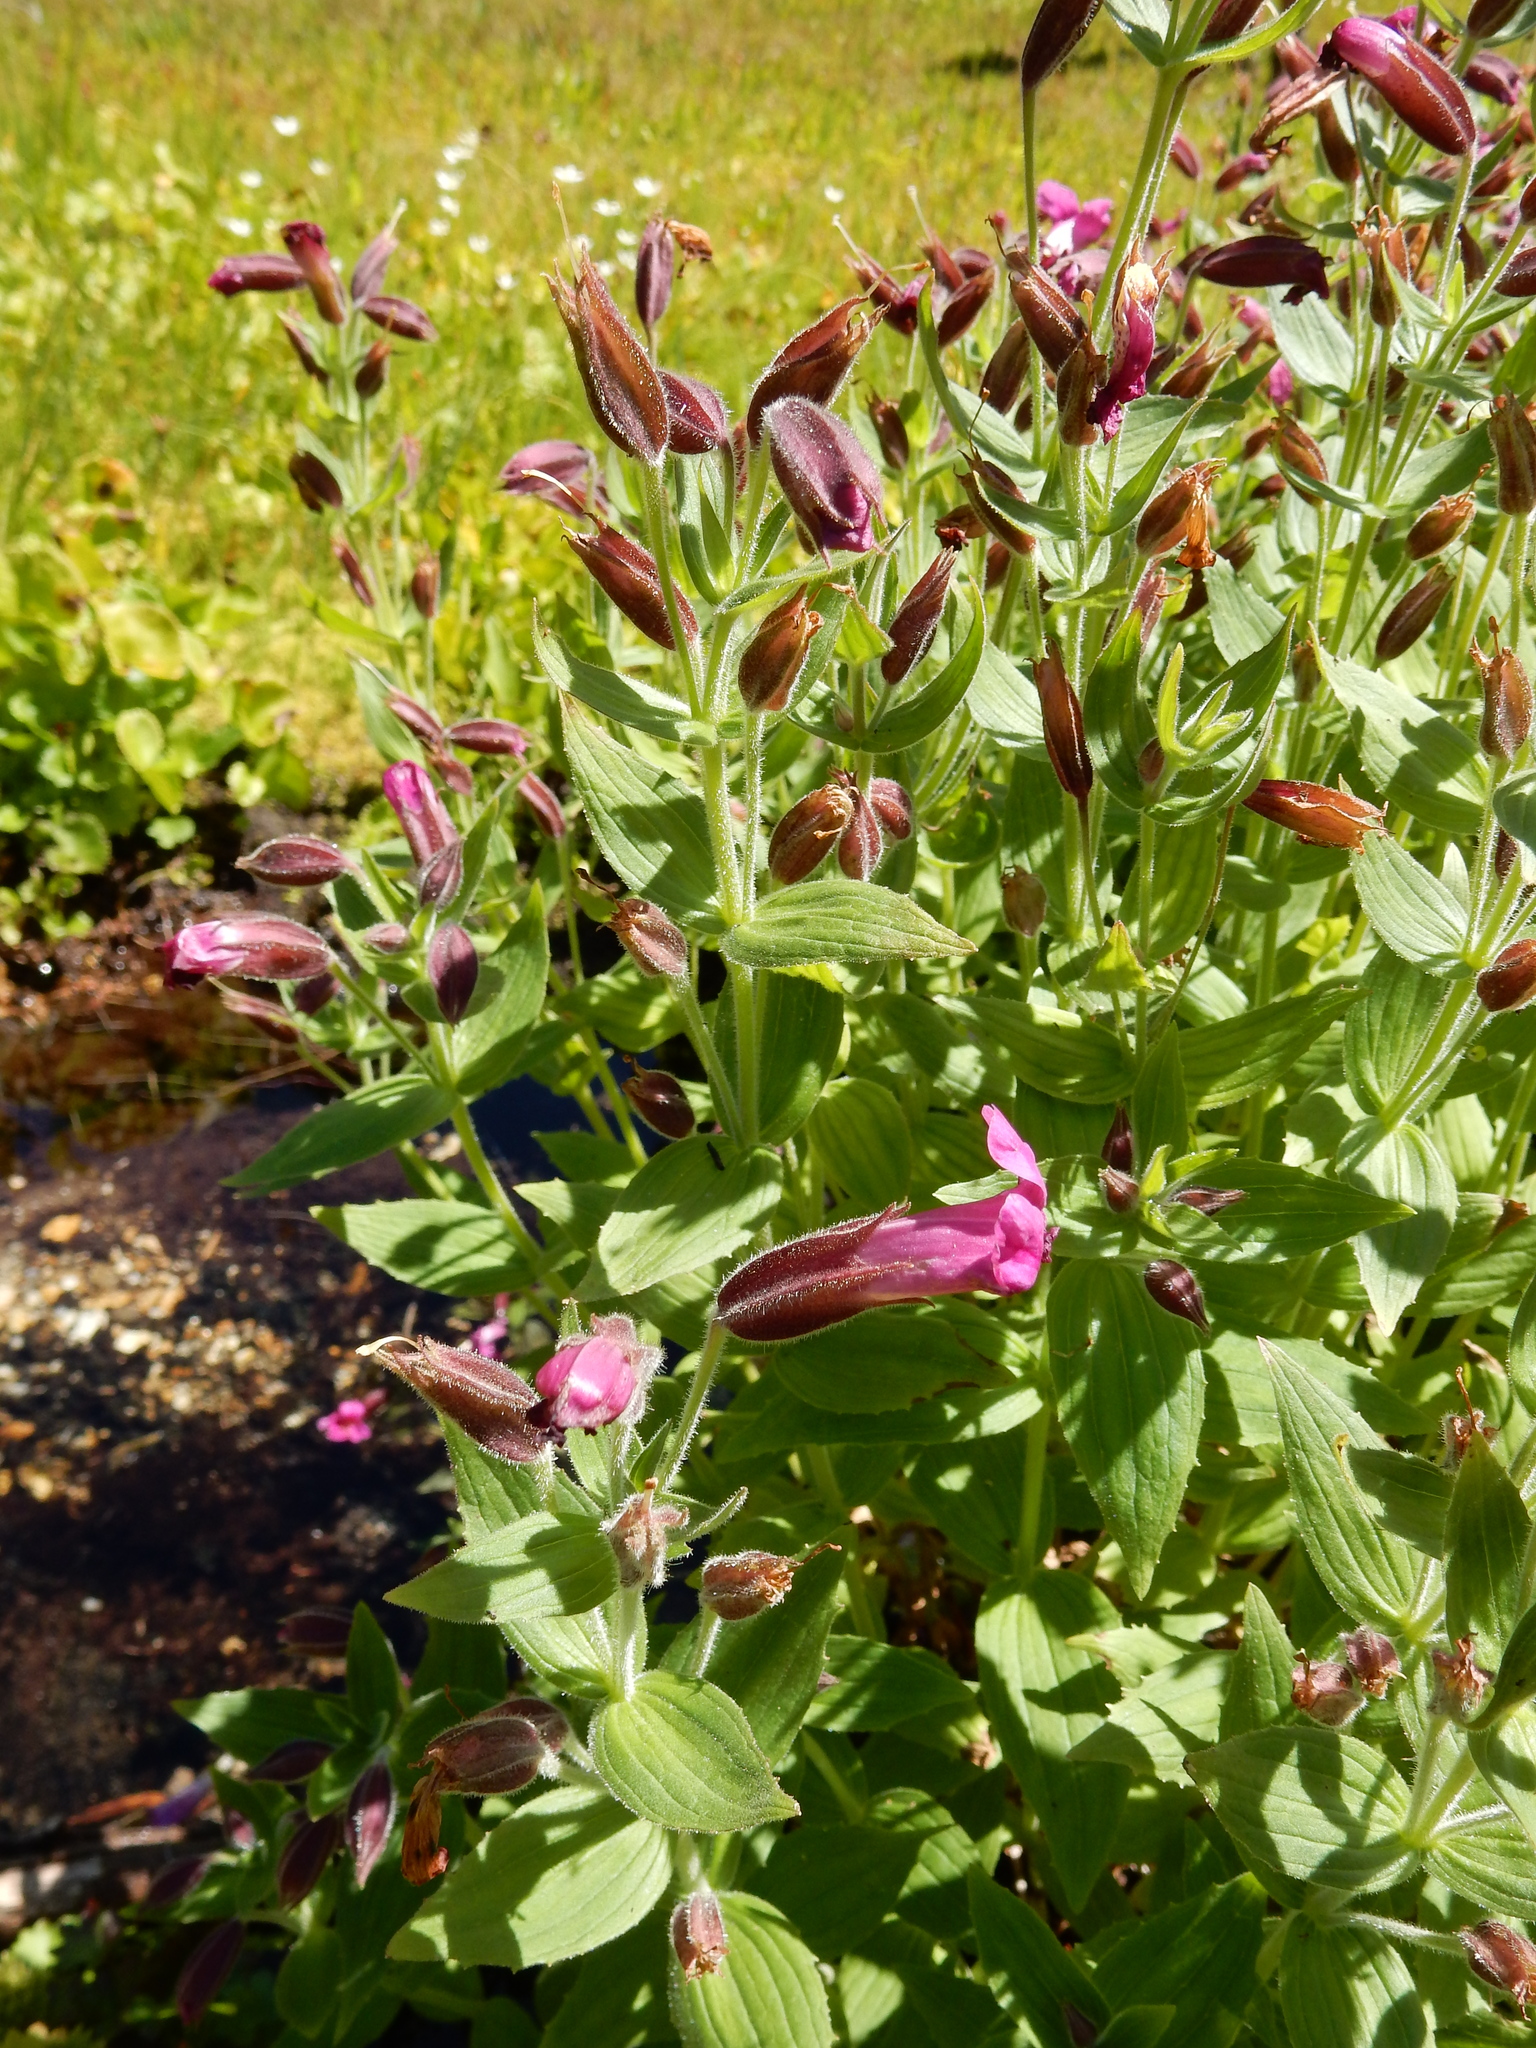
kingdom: Plantae
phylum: Tracheophyta
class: Magnoliopsida
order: Lamiales
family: Phrymaceae
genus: Erythranthe
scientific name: Erythranthe lewisii
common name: Lewis's monkey-flower
